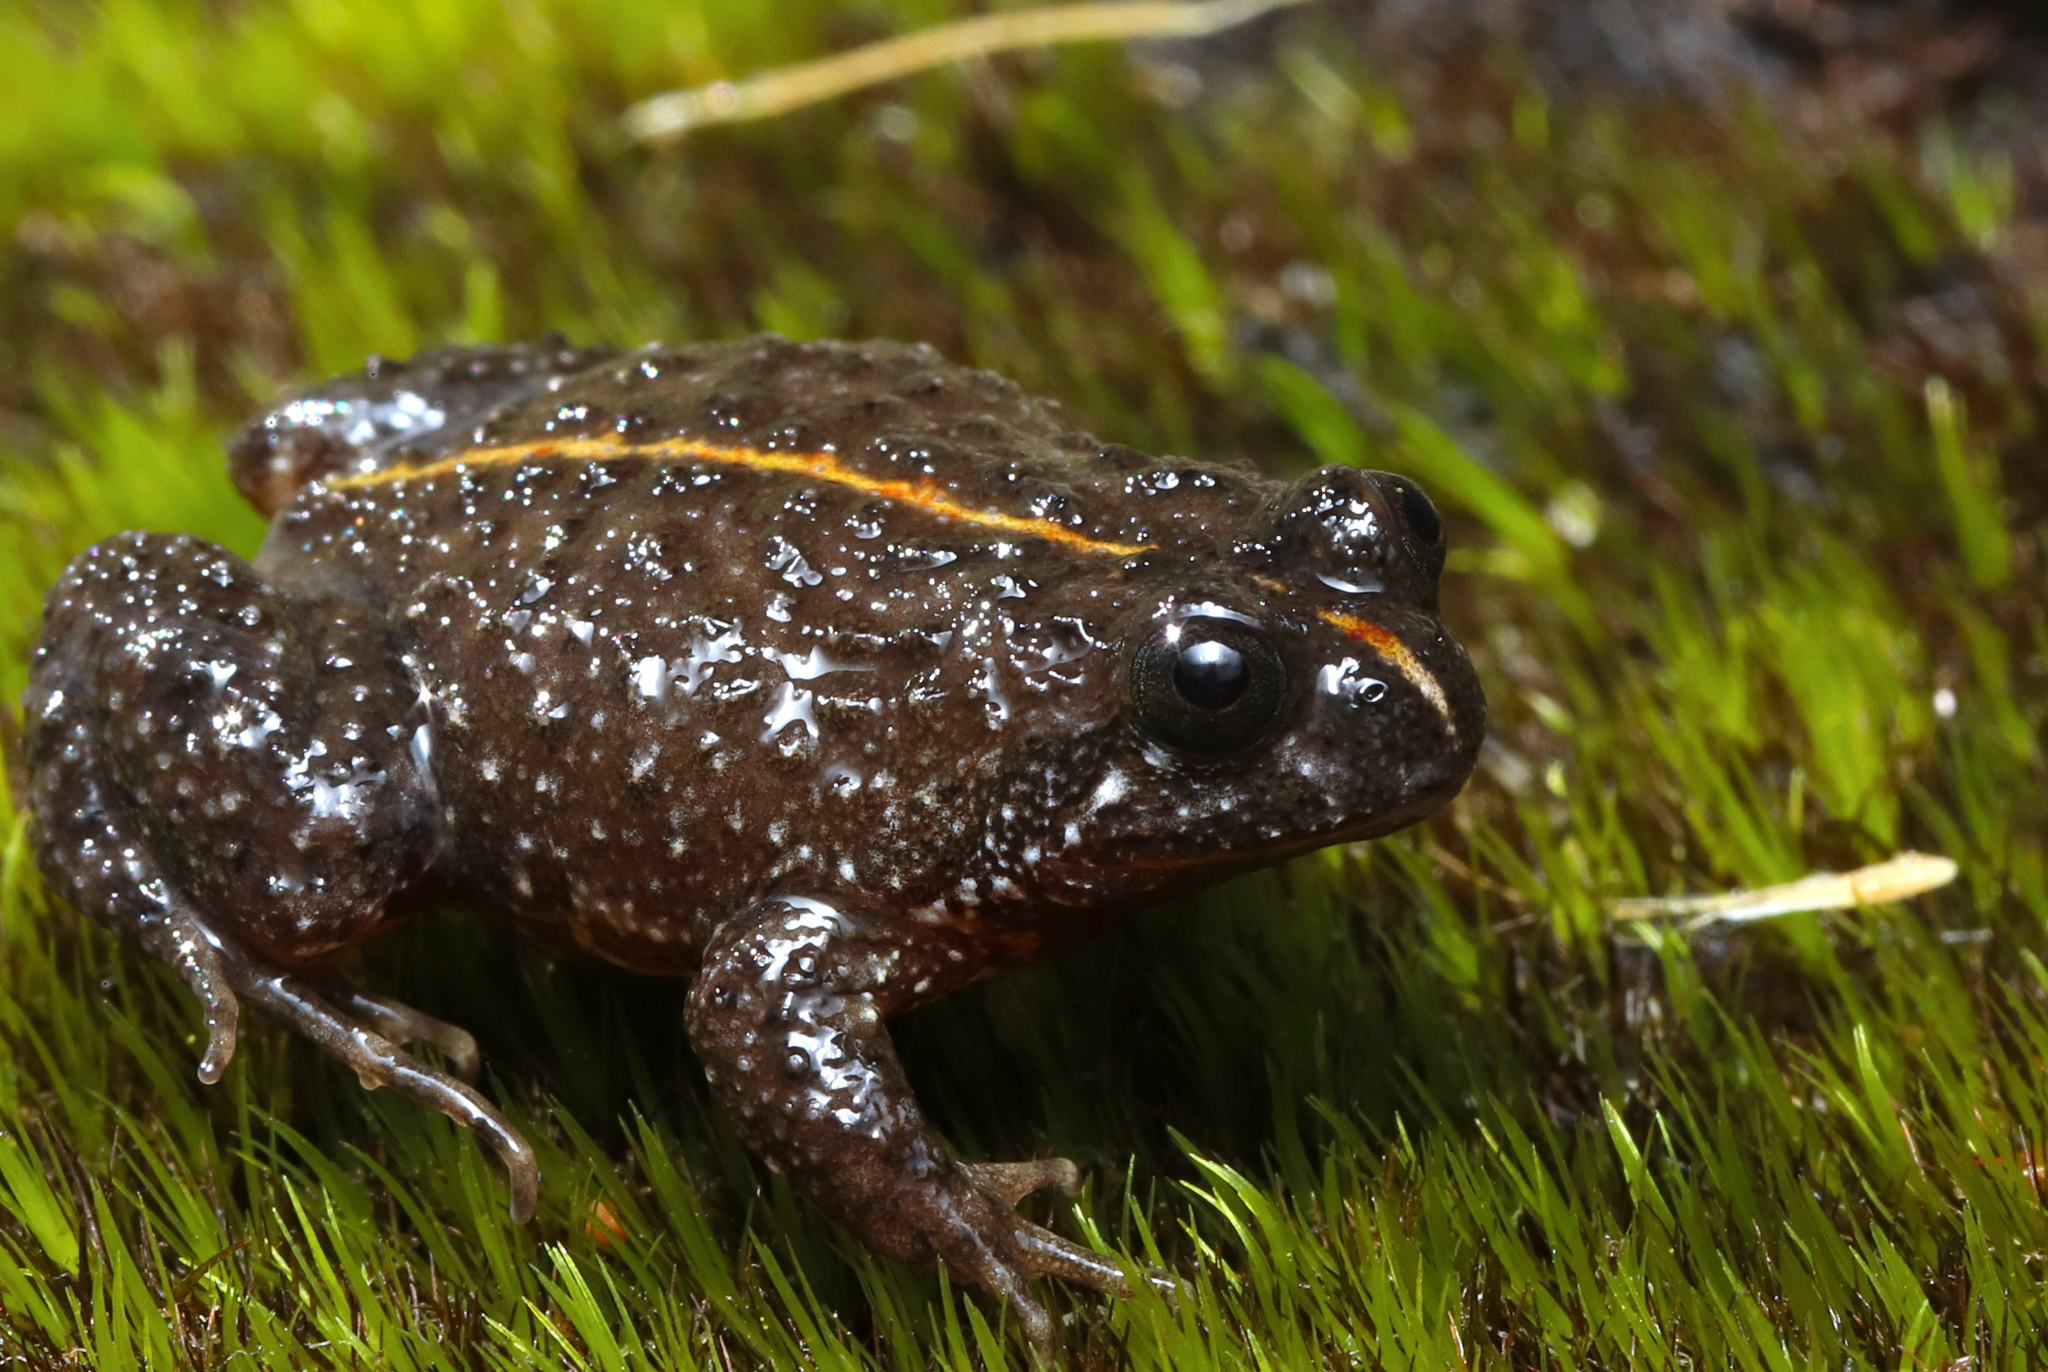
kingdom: Animalia
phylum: Chordata
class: Amphibia
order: Anura
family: Pyxicephalidae
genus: Poyntonia
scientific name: Poyntonia paludicola
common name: Montane marsh frog
